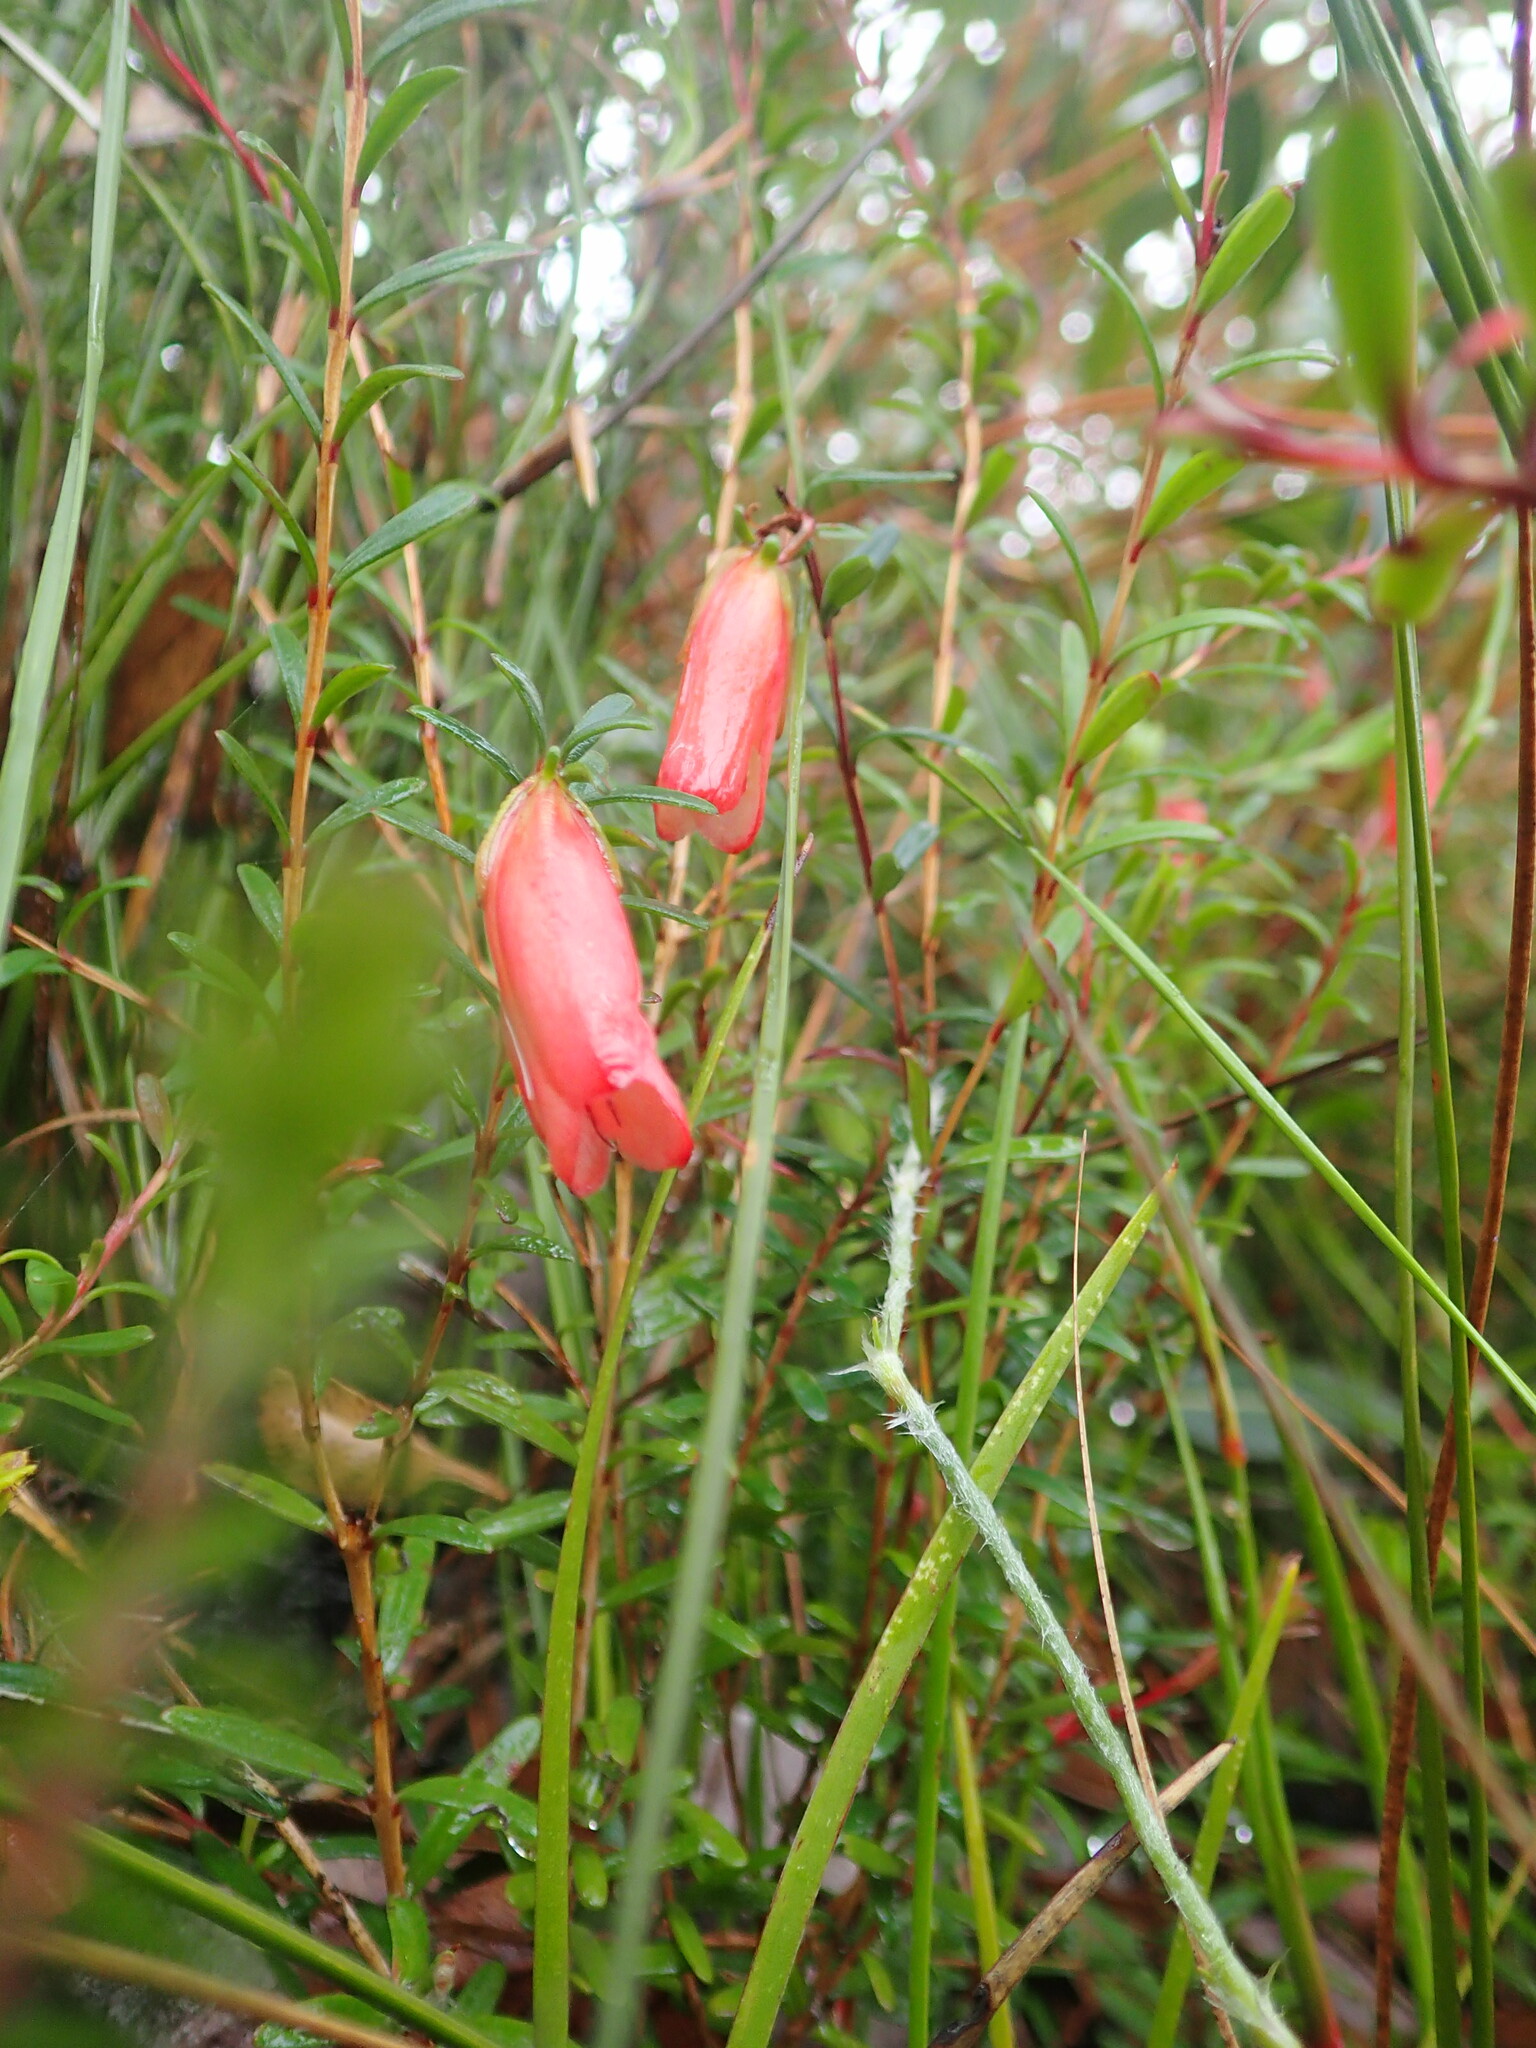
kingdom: Plantae
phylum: Tracheophyta
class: Magnoliopsida
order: Myrtales
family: Myrtaceae
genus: Darwinia
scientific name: Darwinia hypericifolia
